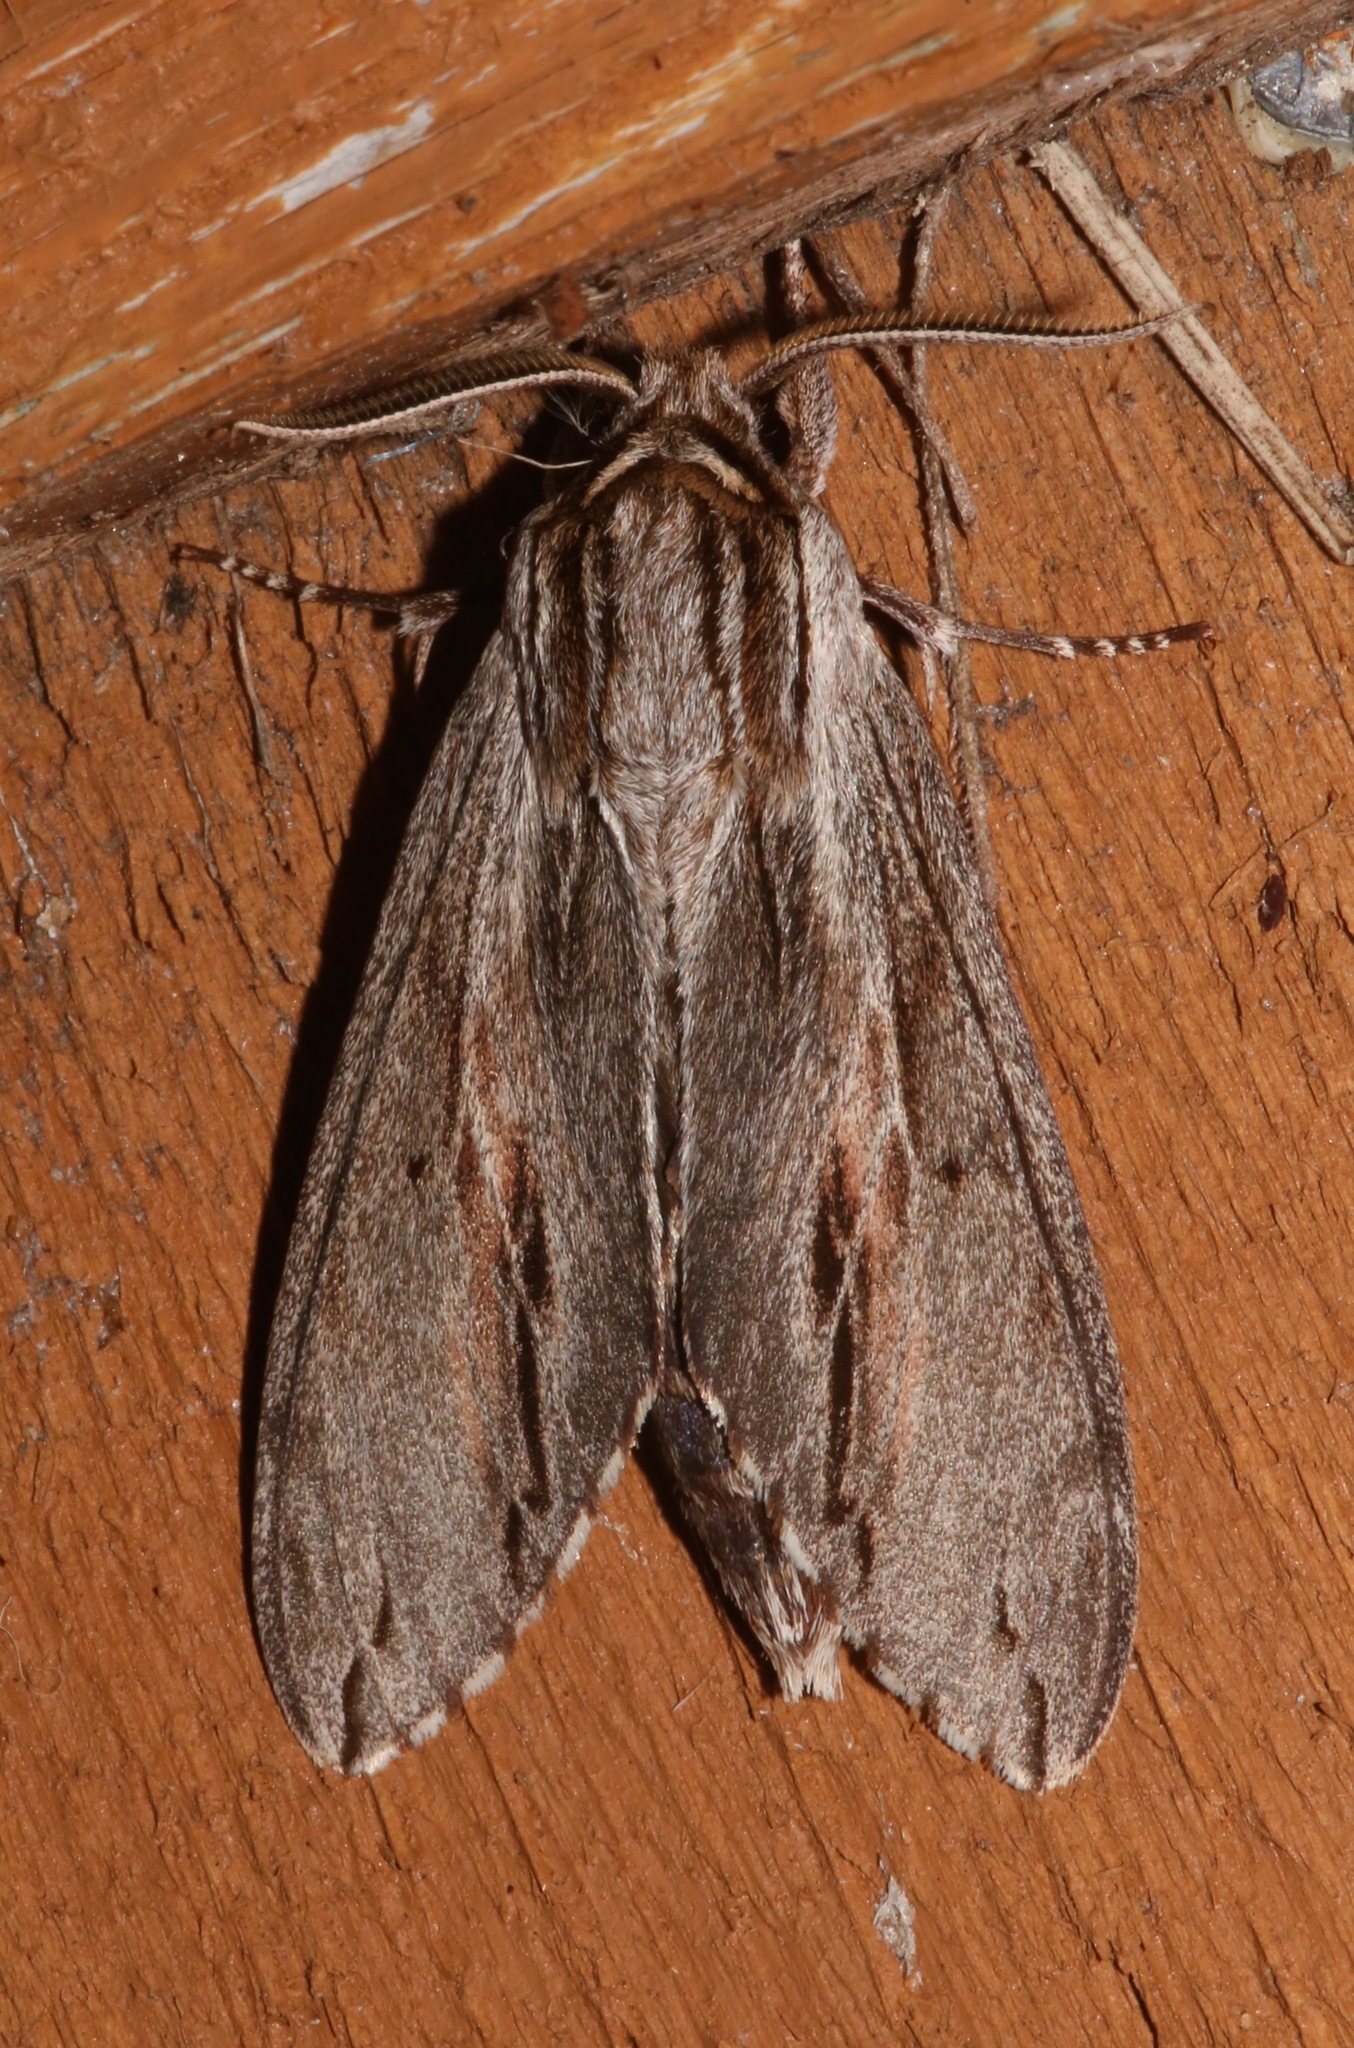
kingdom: Animalia
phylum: Arthropoda
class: Insecta
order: Lepidoptera
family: Sphingidae
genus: Isoparce
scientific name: Isoparce cupressi
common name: Cypress sphinx
